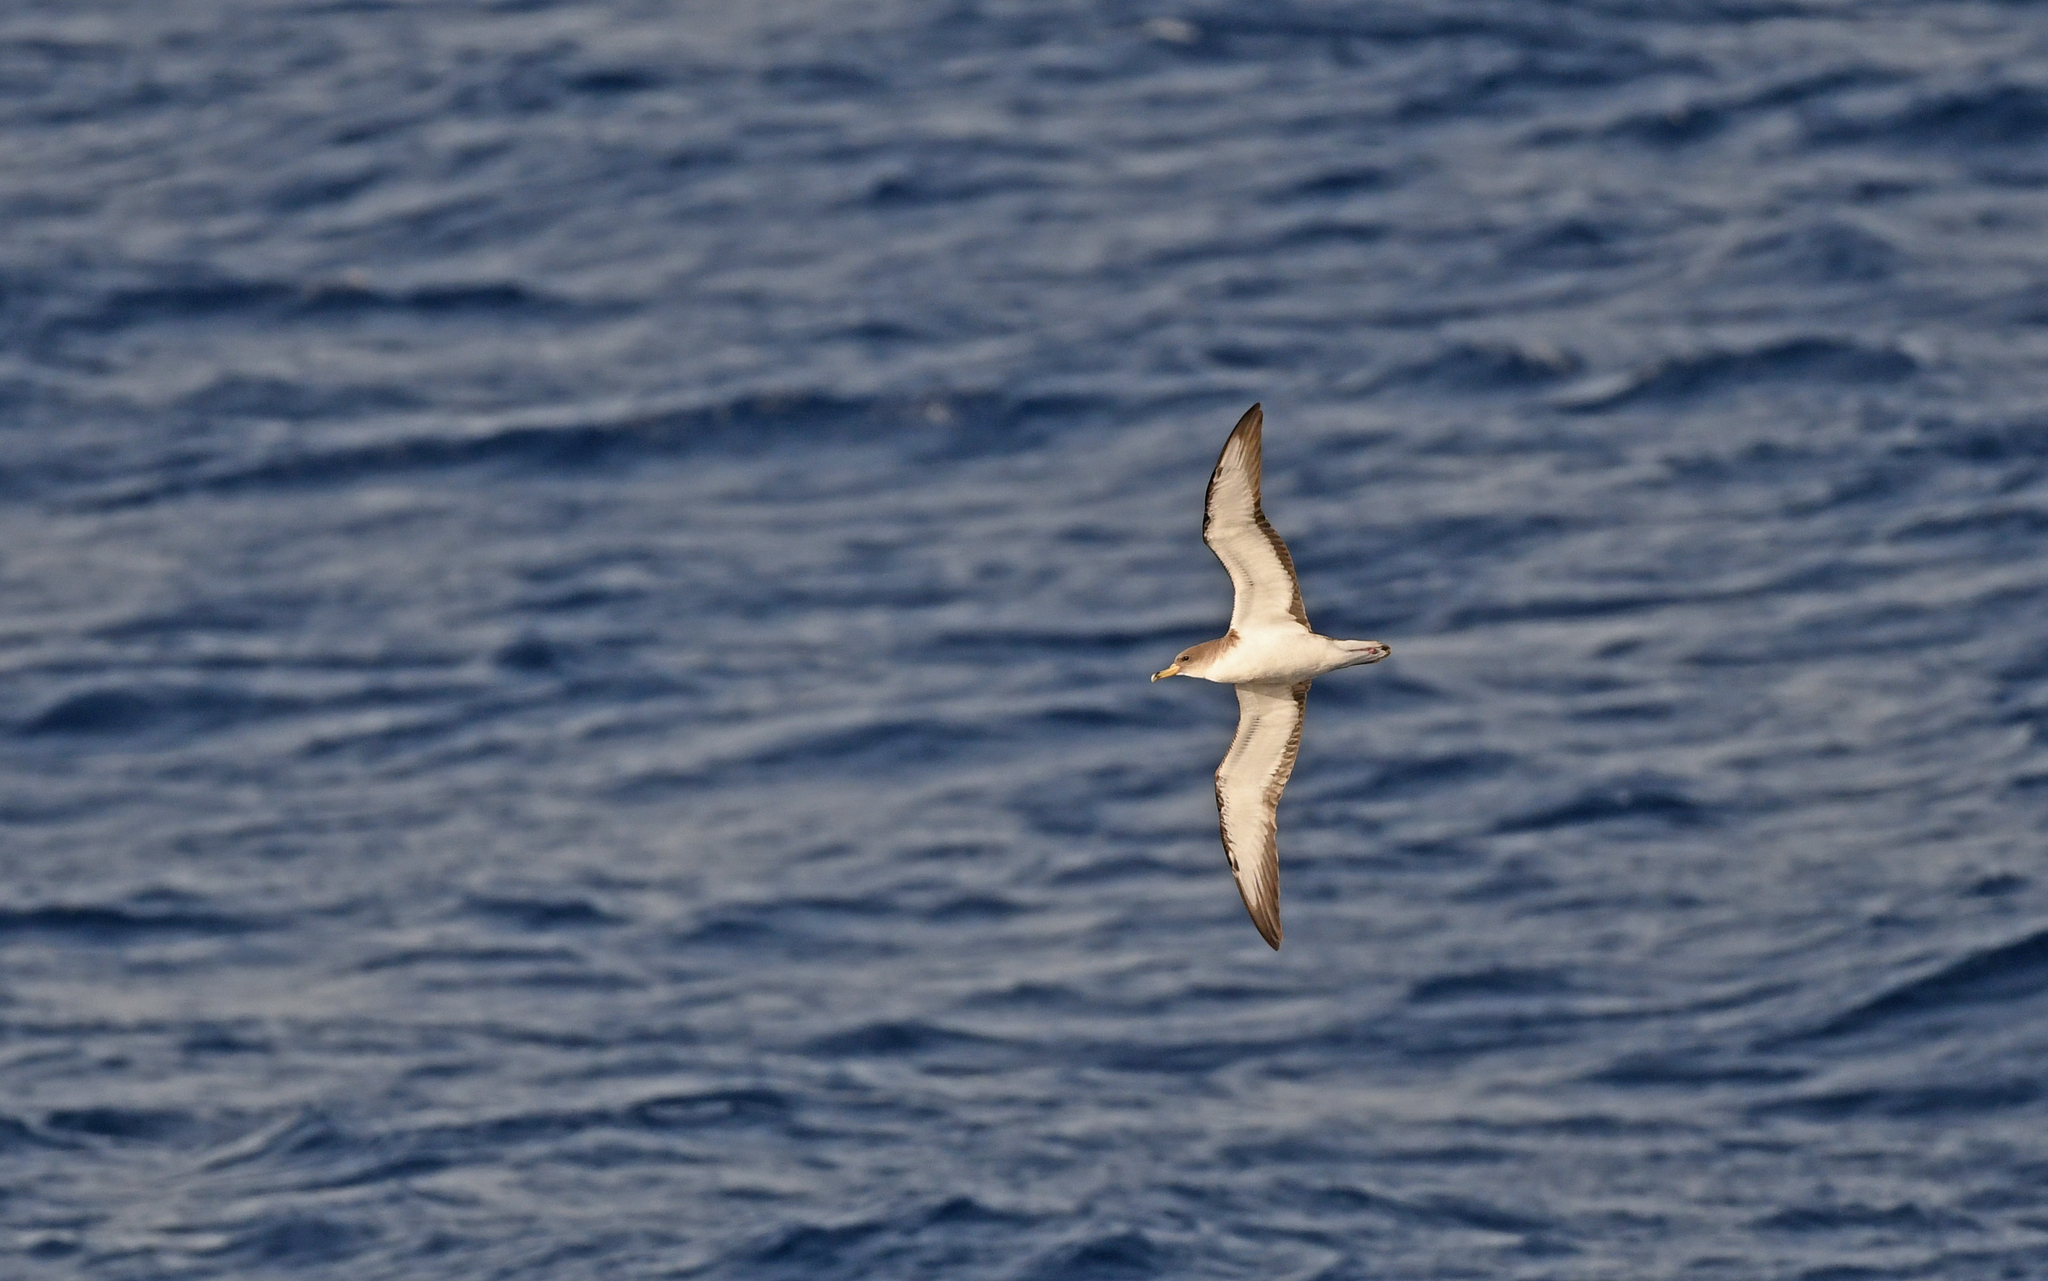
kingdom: Animalia
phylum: Chordata
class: Aves
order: Procellariiformes
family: Procellariidae
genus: Calonectris
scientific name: Calonectris diomedea
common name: Cory's shearwater
